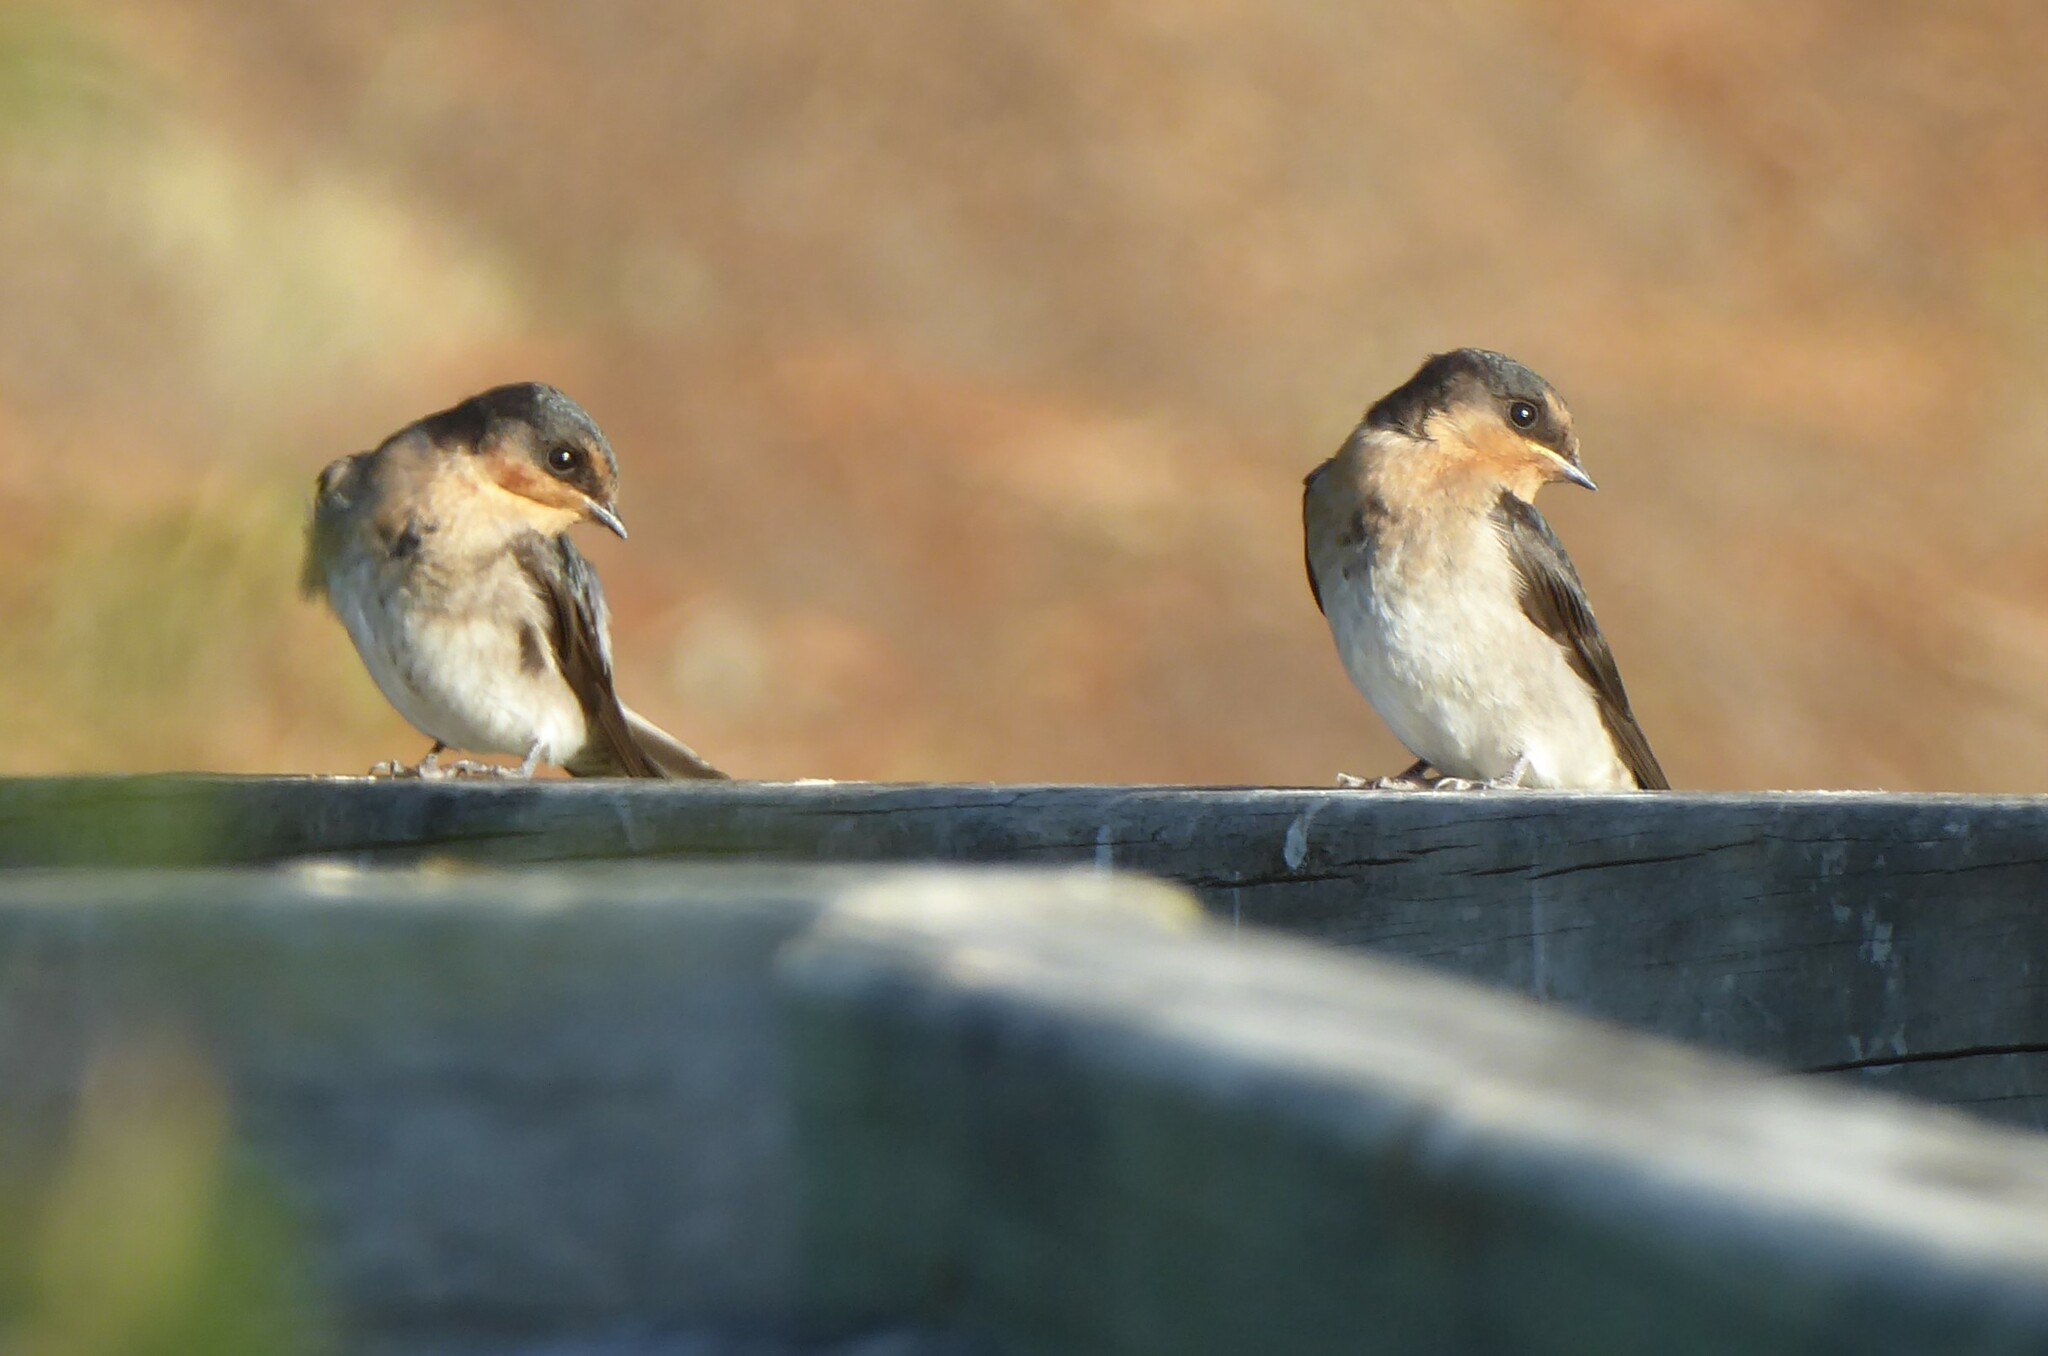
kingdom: Animalia
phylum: Chordata
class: Aves
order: Passeriformes
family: Hirundinidae
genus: Hirundo
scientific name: Hirundo neoxena
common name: Welcome swallow
